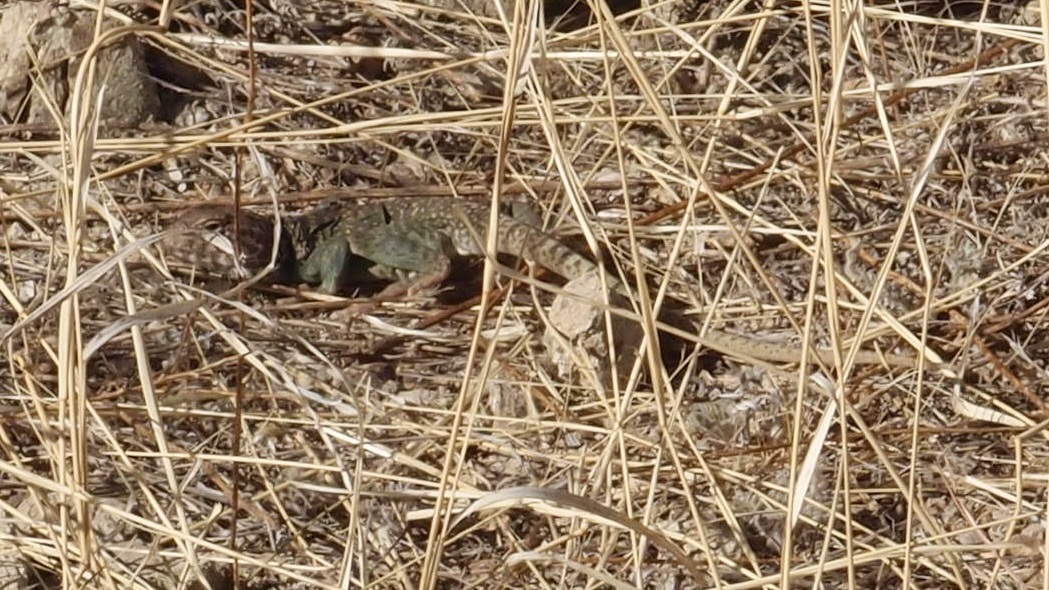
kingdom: Animalia
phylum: Chordata
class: Squamata
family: Crotaphytidae
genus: Crotaphytus
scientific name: Crotaphytus collaris
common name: Collared lizard
